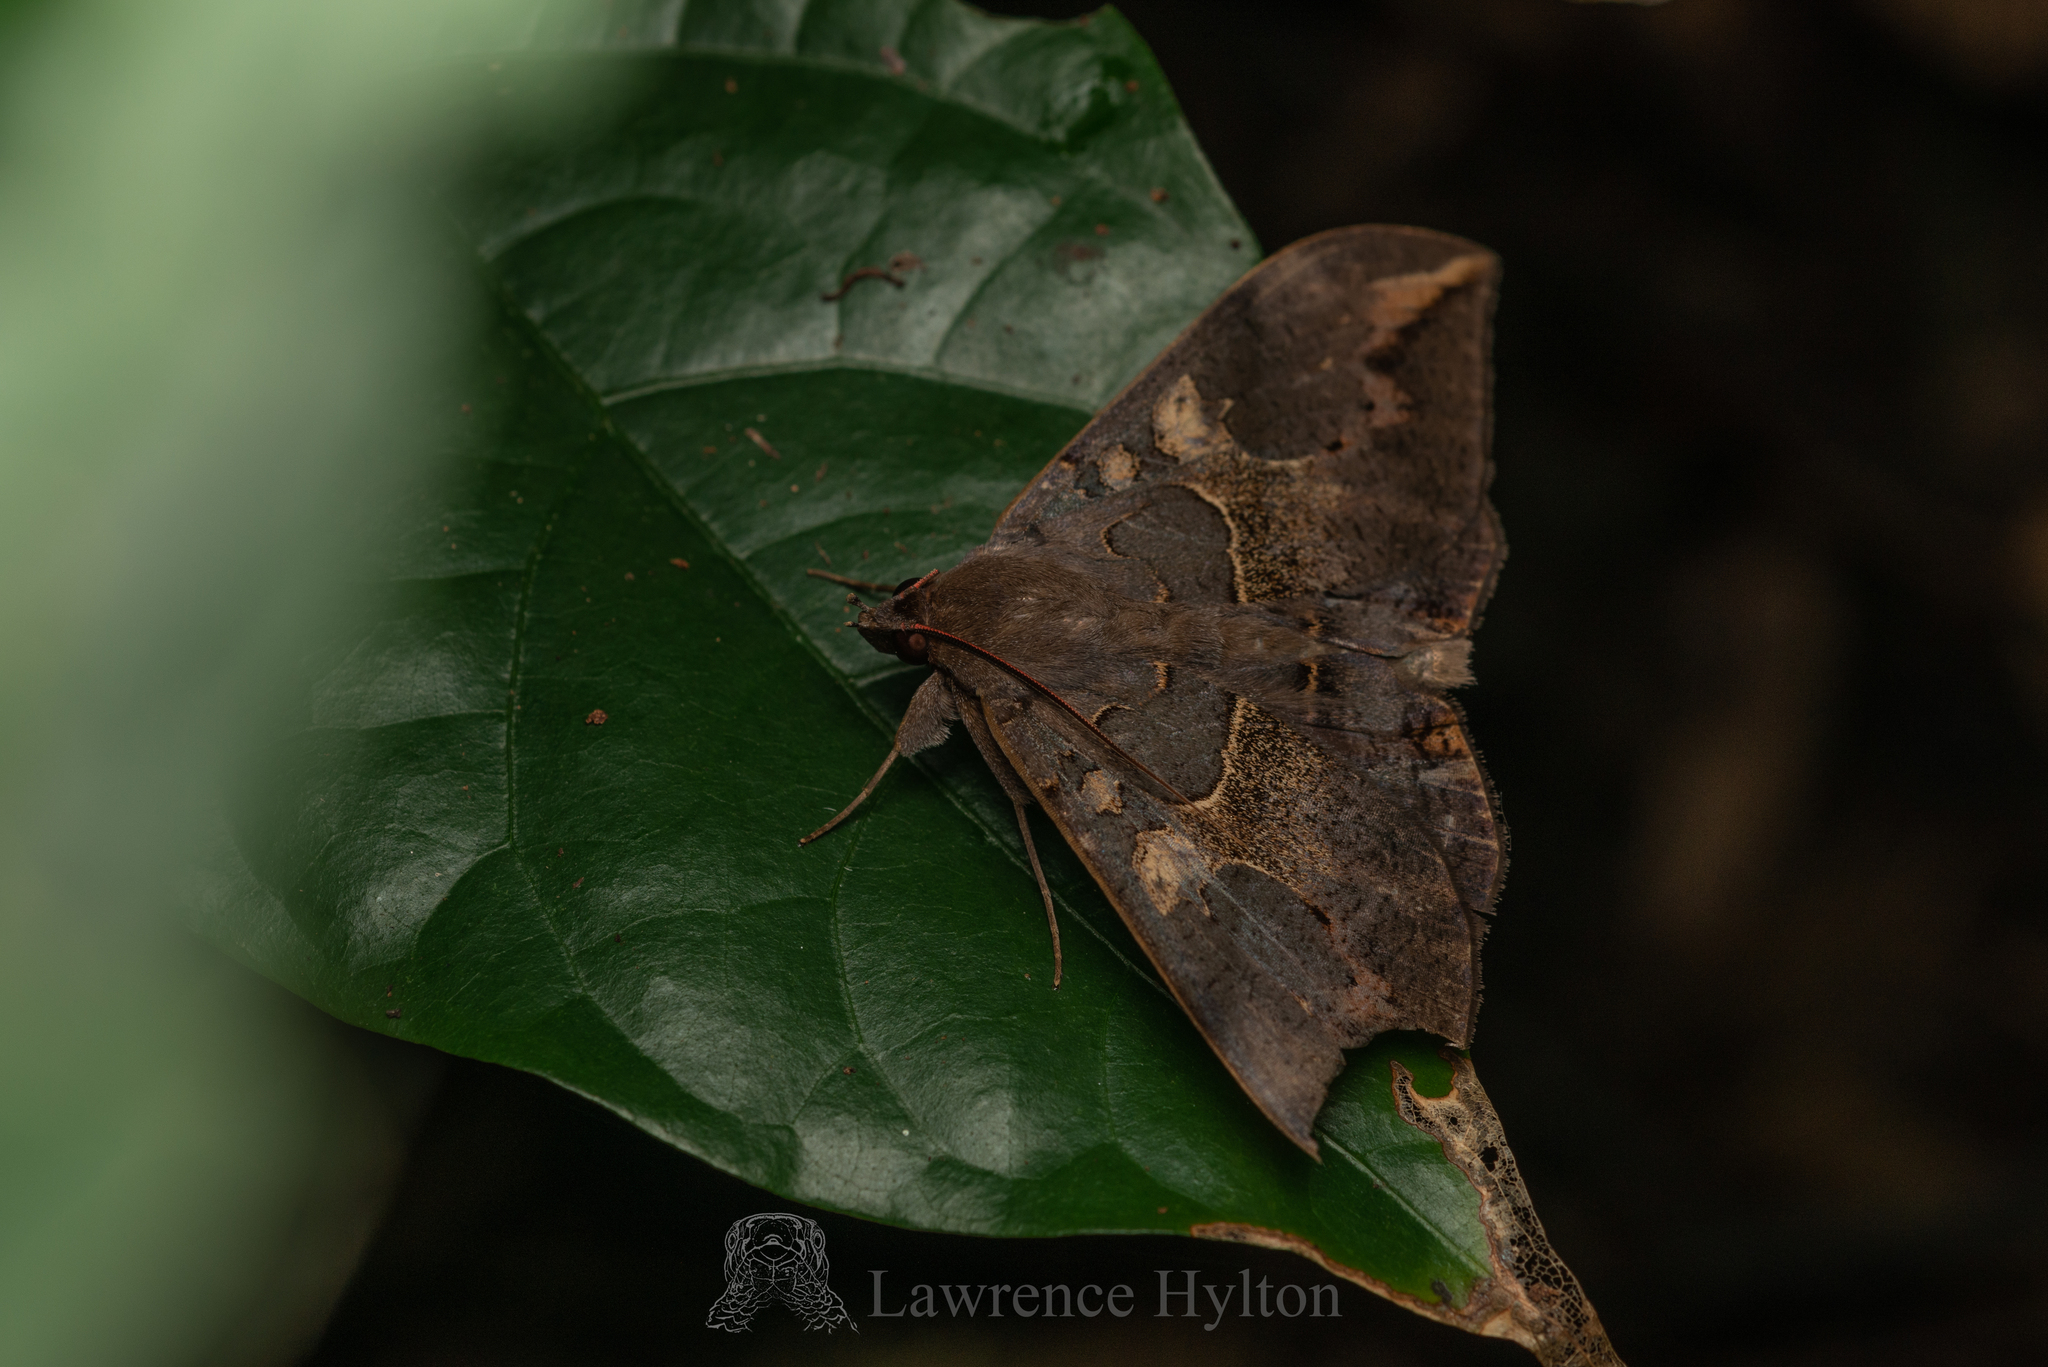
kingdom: Animalia
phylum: Arthropoda
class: Insecta
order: Lepidoptera
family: Erebidae
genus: Ischyja
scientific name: Ischyja ferrifracta
